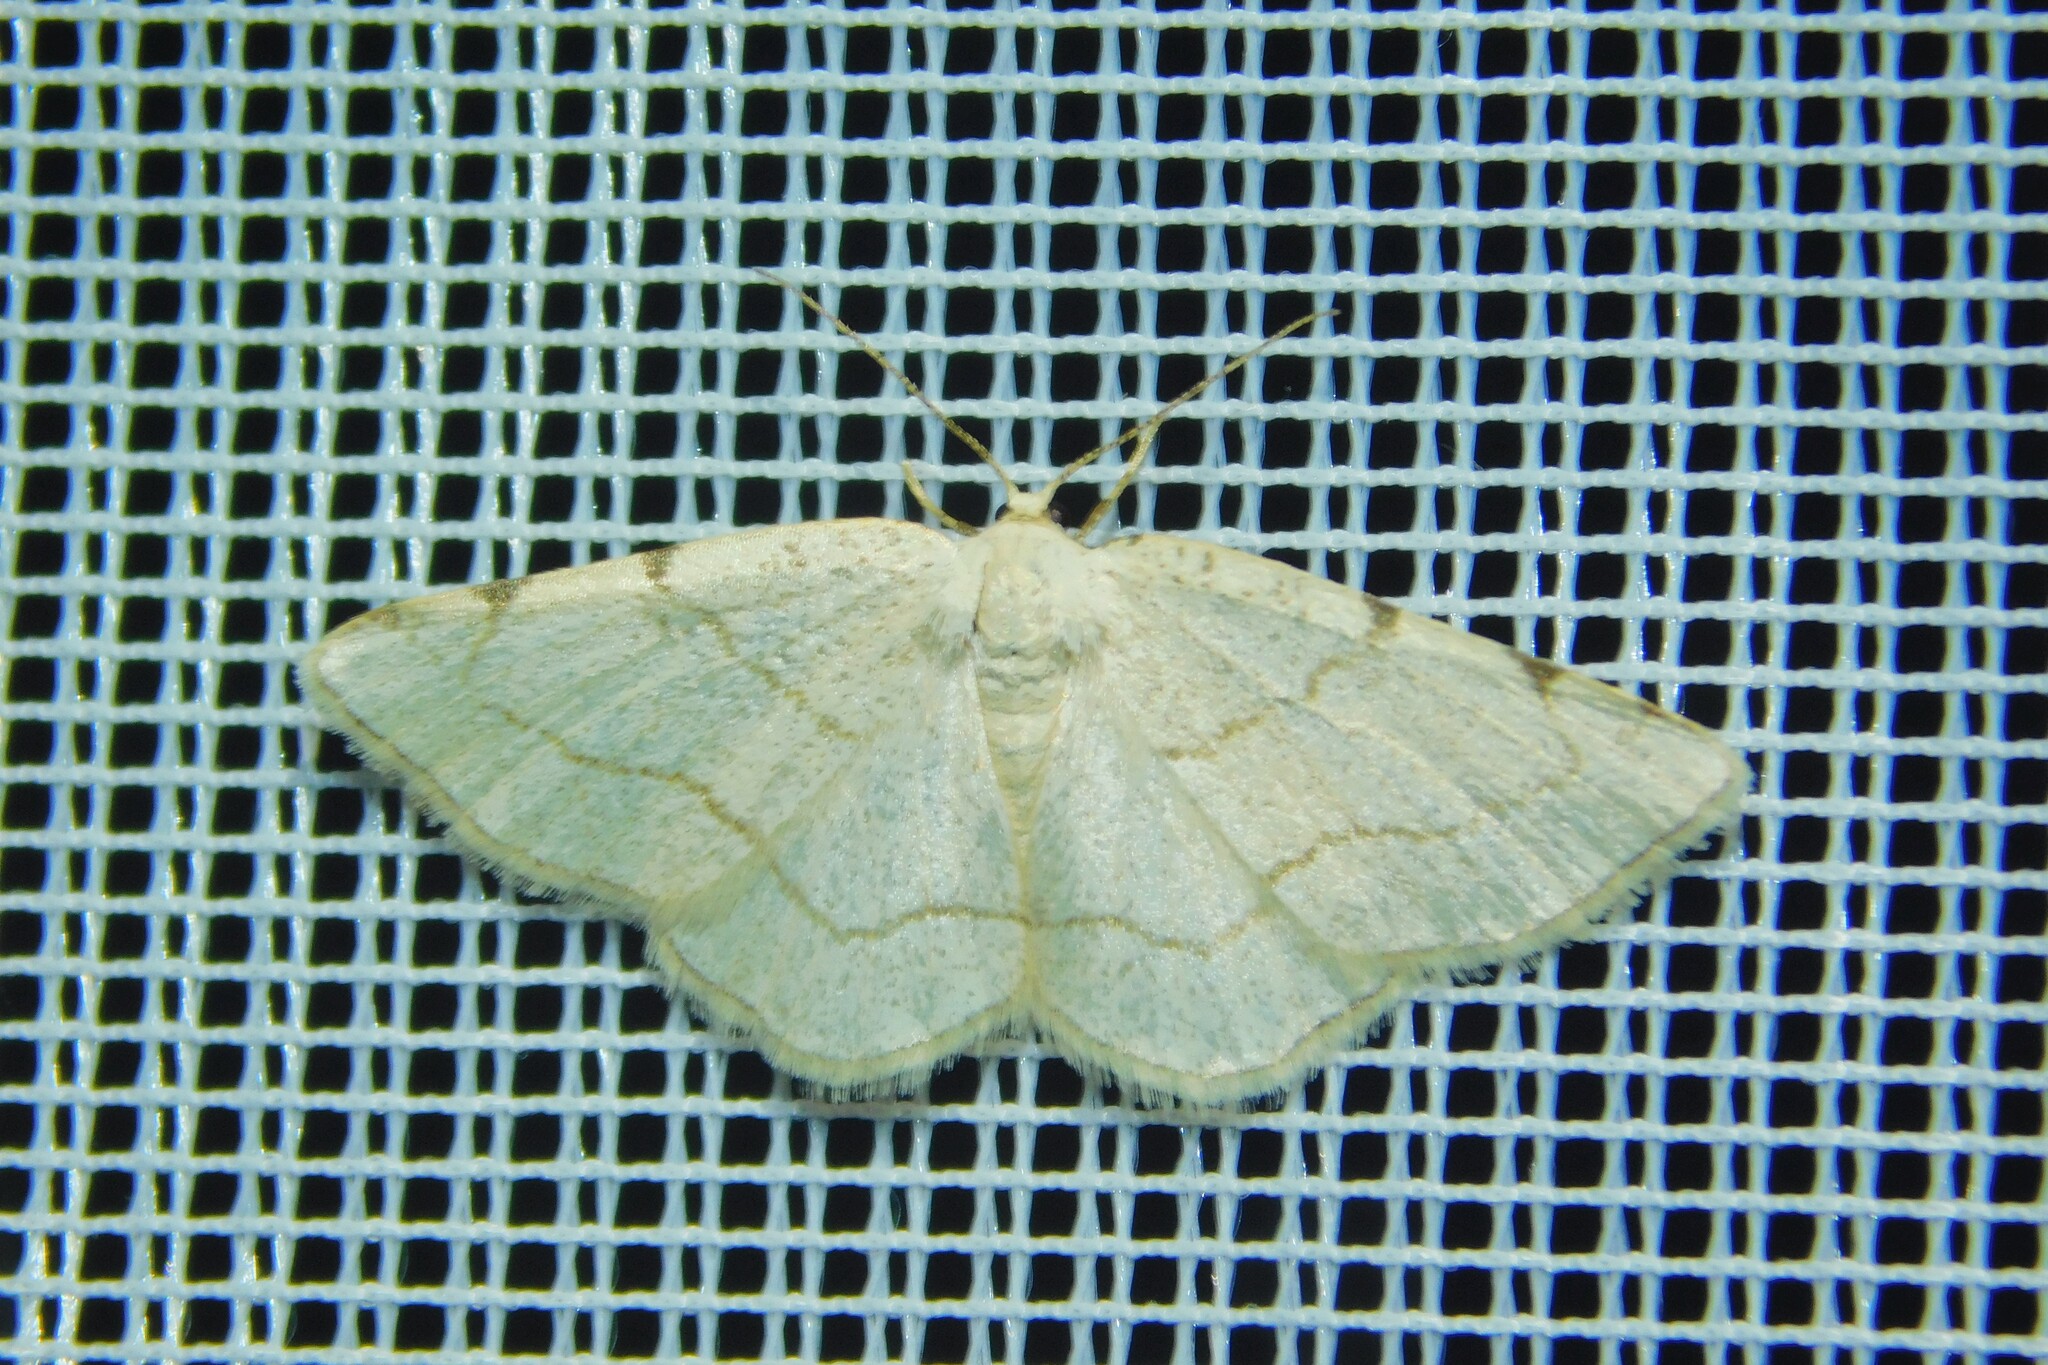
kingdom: Animalia
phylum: Arthropoda
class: Insecta
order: Lepidoptera
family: Geometridae
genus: Stegania
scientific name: Stegania trimaculata
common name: Dorset cream wave
